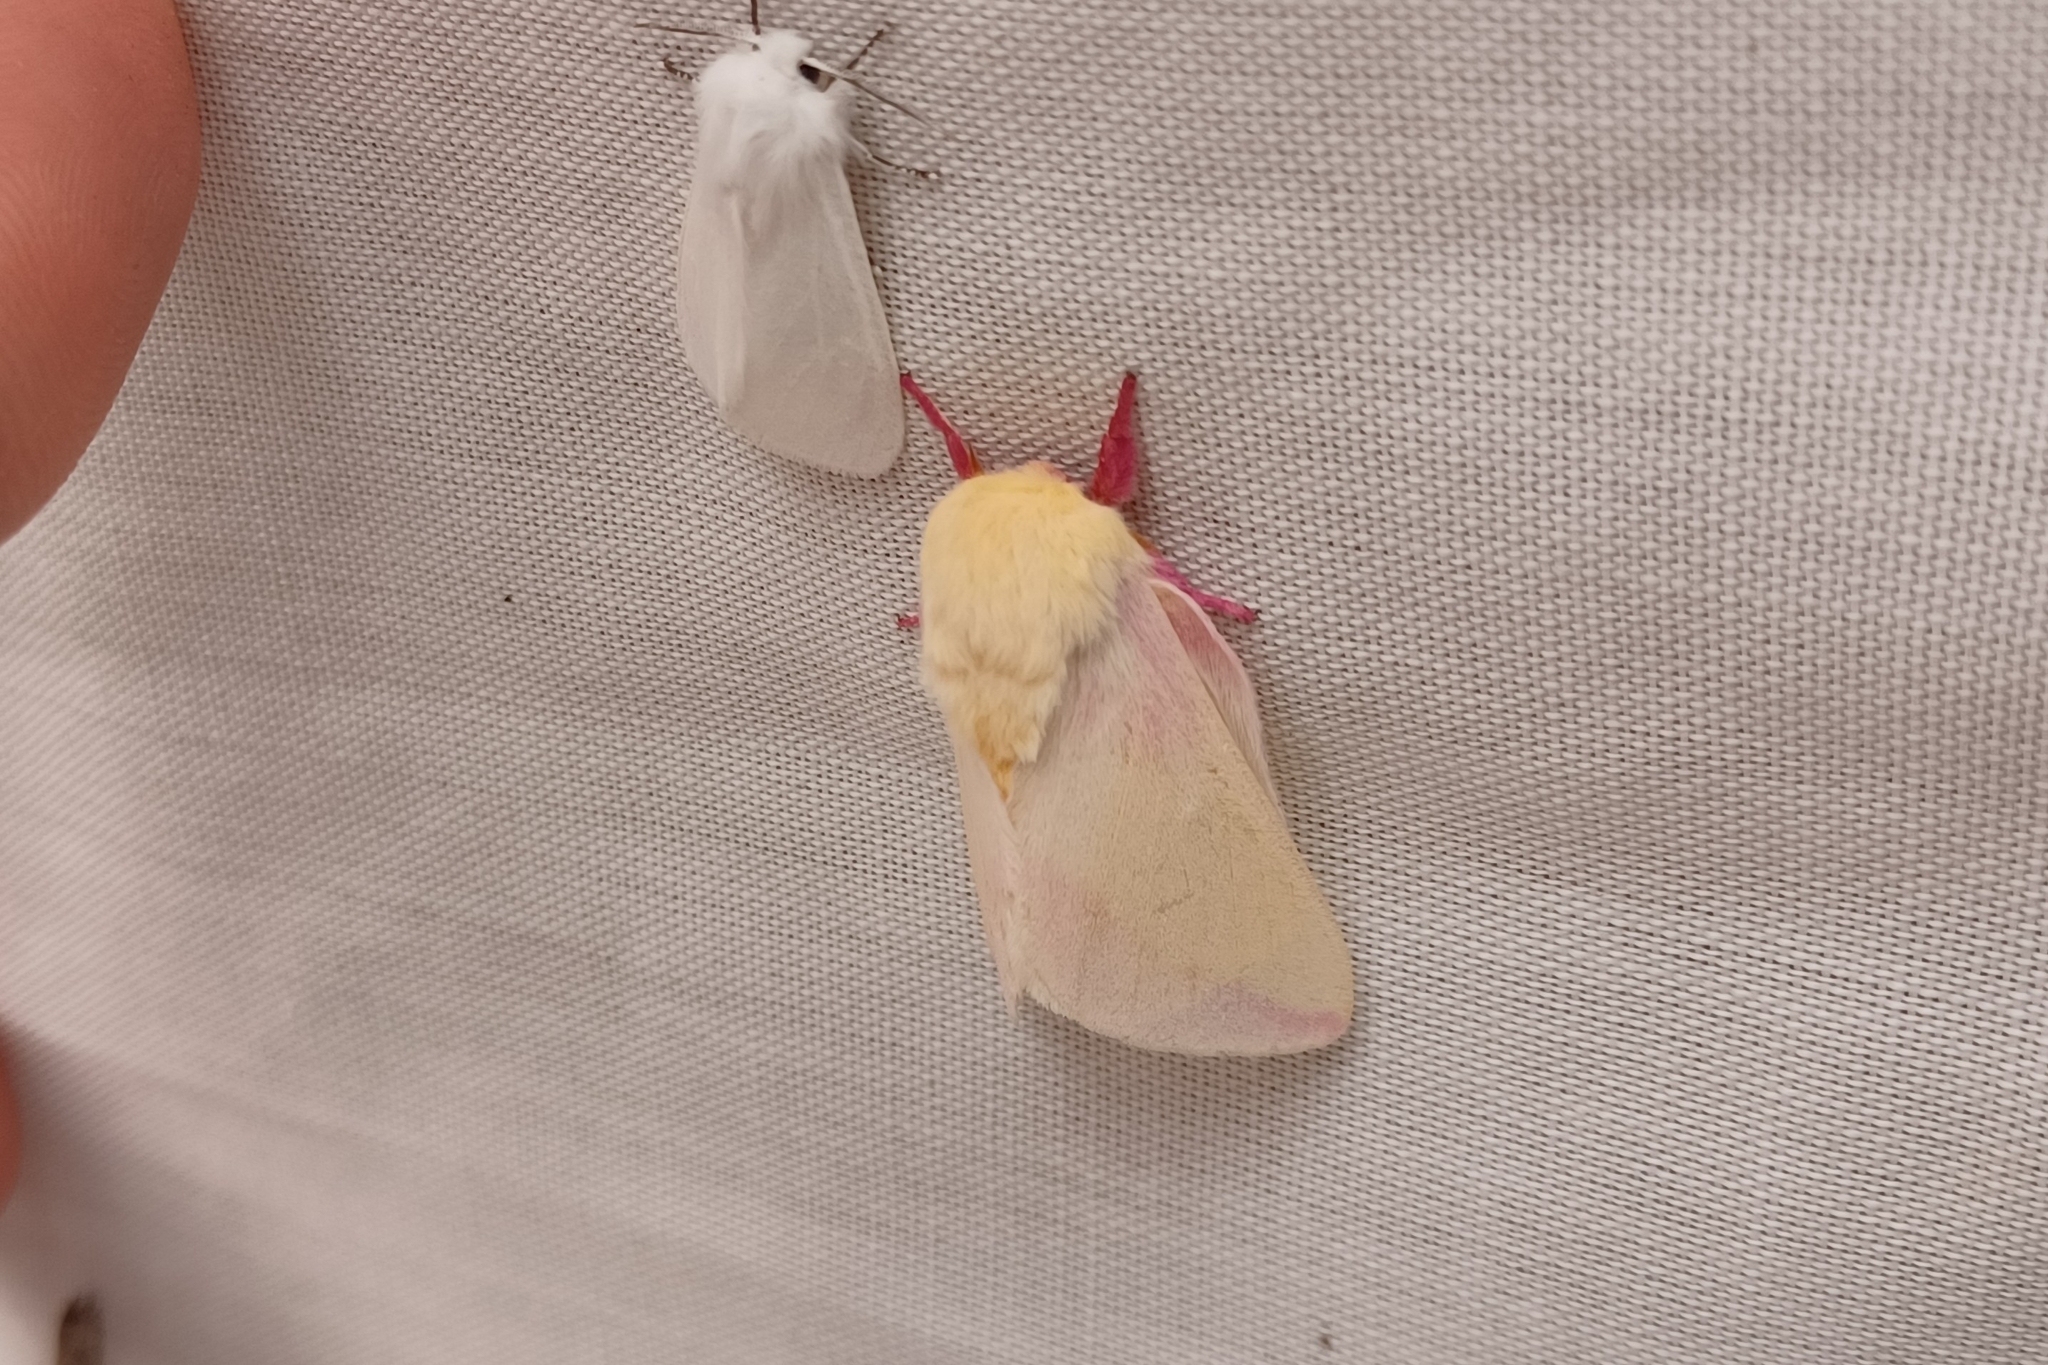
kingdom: Animalia
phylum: Arthropoda
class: Insecta
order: Lepidoptera
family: Saturniidae
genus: Dryocampa
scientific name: Dryocampa rubicunda
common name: Rosy maple moth
